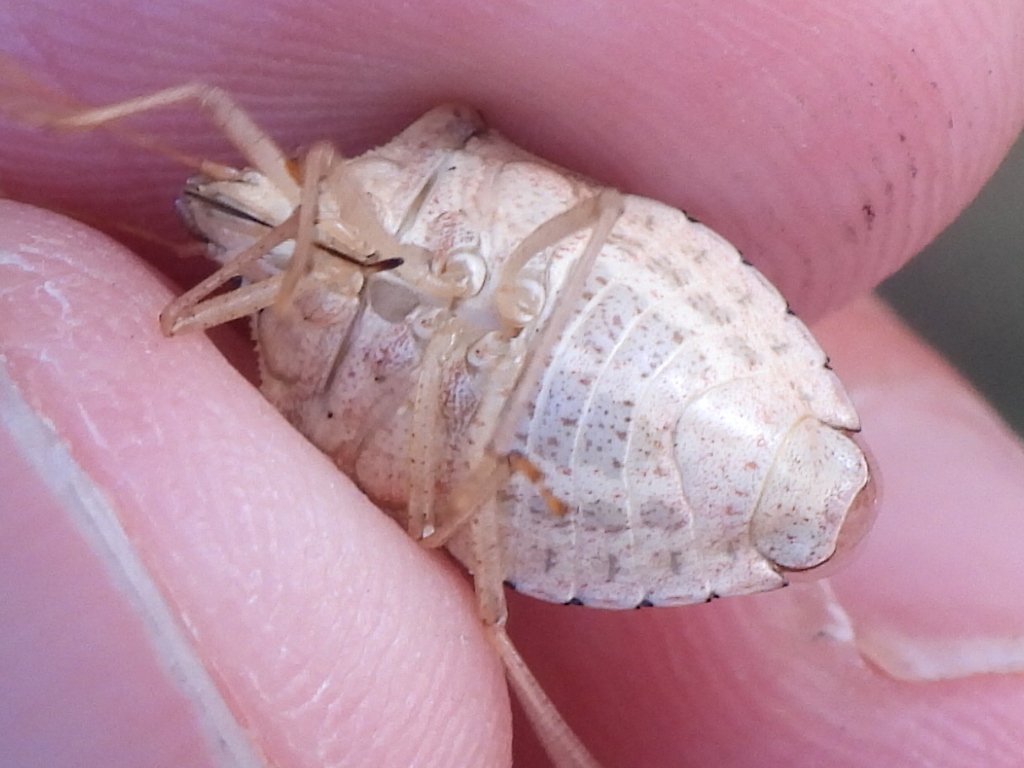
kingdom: Animalia
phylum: Arthropoda
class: Insecta
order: Hemiptera
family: Pentatomidae
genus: Euschistus
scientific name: Euschistus servus
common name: Brown stink bug
